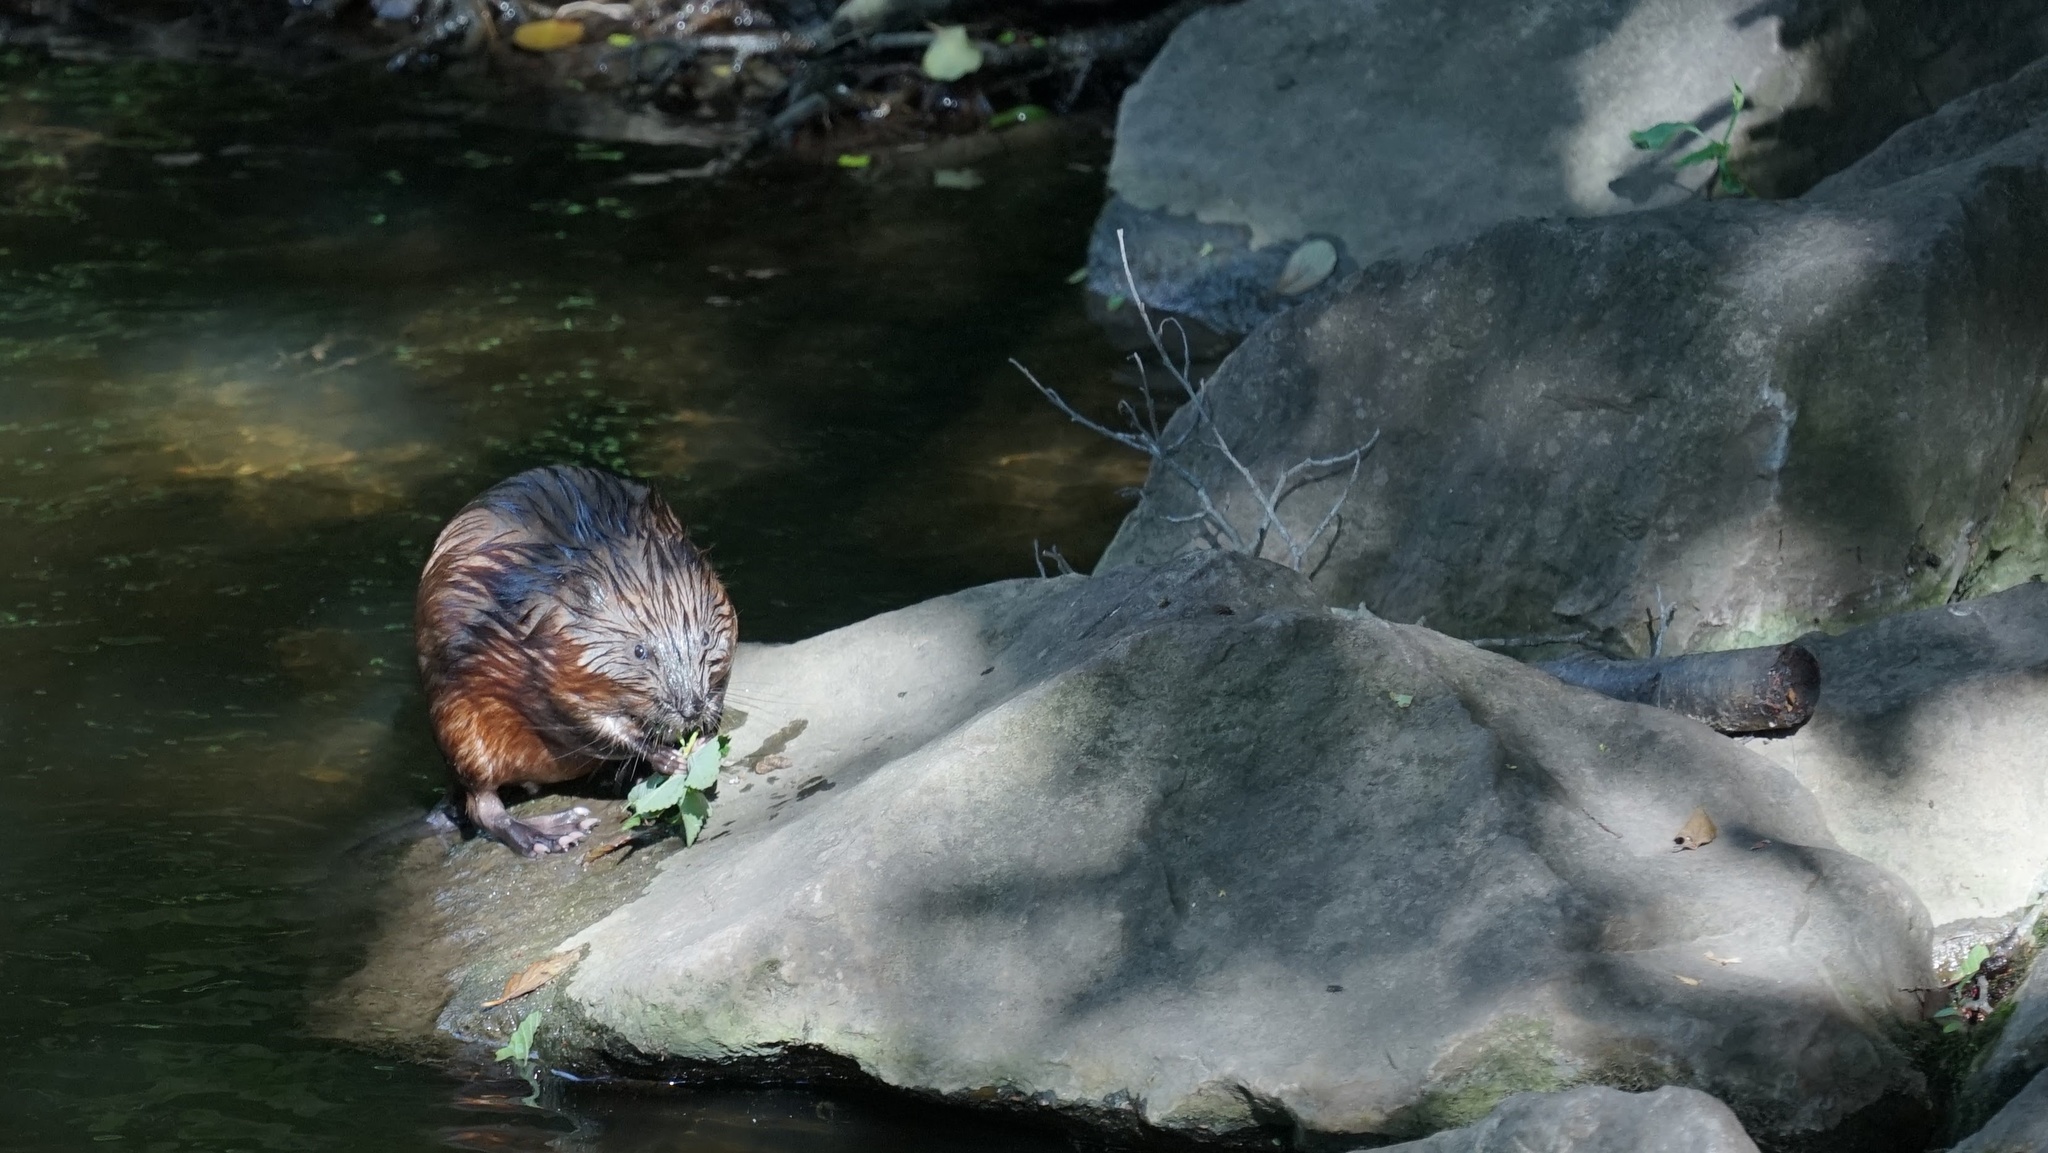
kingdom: Animalia
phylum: Chordata
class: Mammalia
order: Rodentia
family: Cricetidae
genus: Ondatra
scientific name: Ondatra zibethicus
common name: Muskrat
